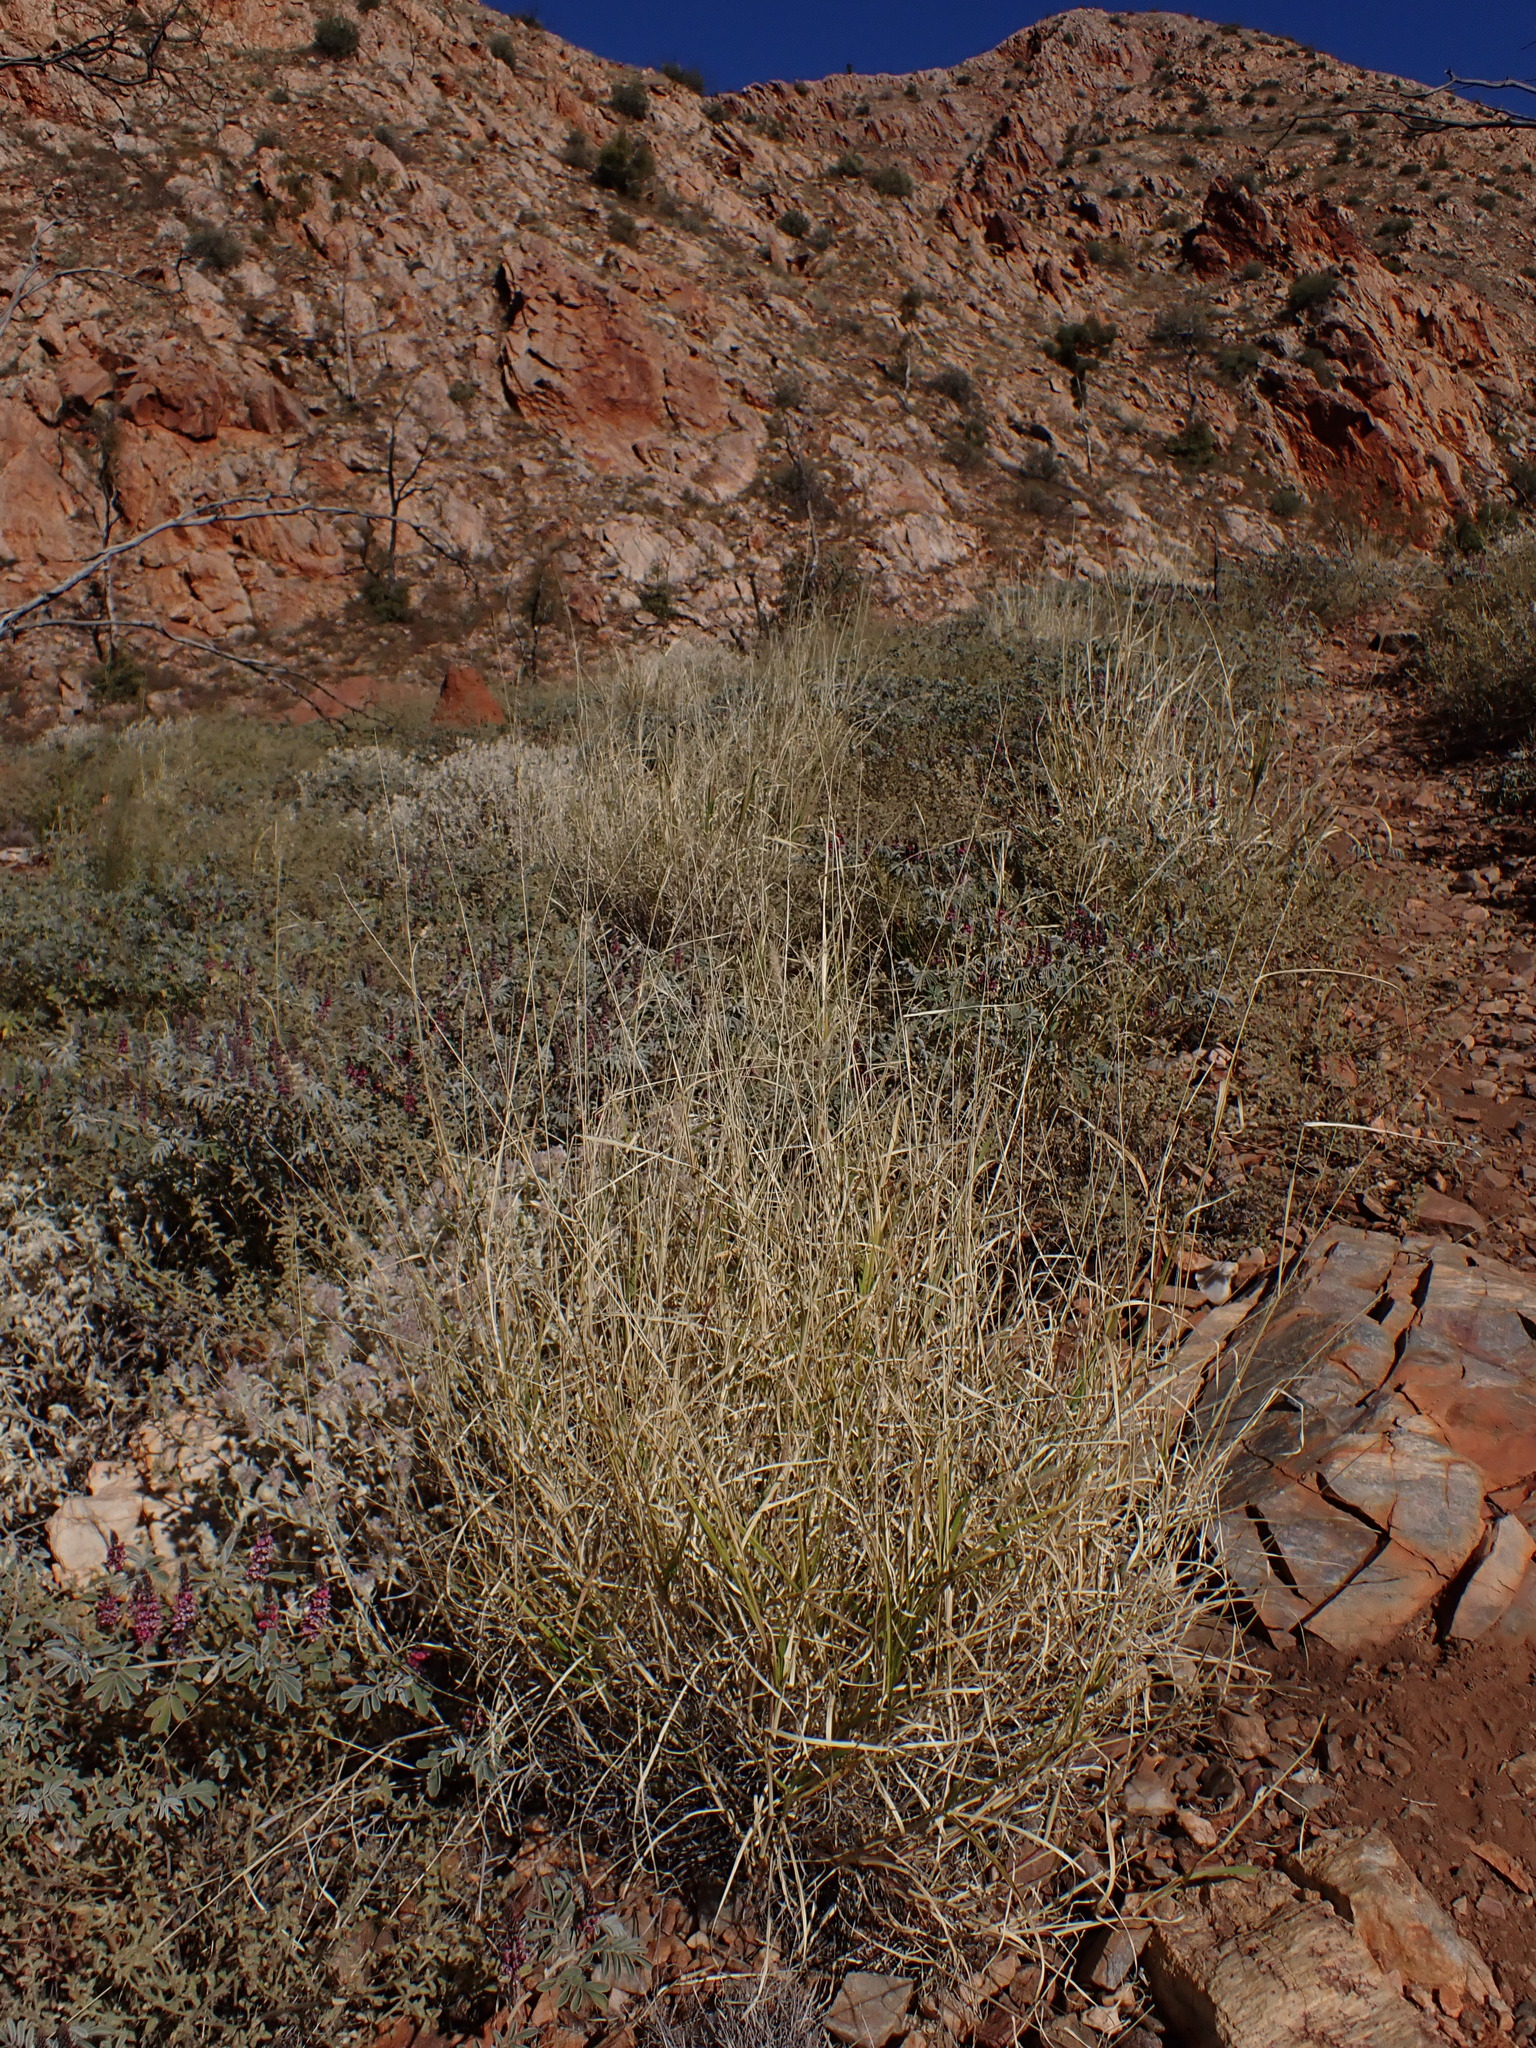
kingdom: Plantae
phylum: Tracheophyta
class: Liliopsida
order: Poales
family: Poaceae
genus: Cenchrus
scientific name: Cenchrus ciliaris
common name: Buffelgrass
